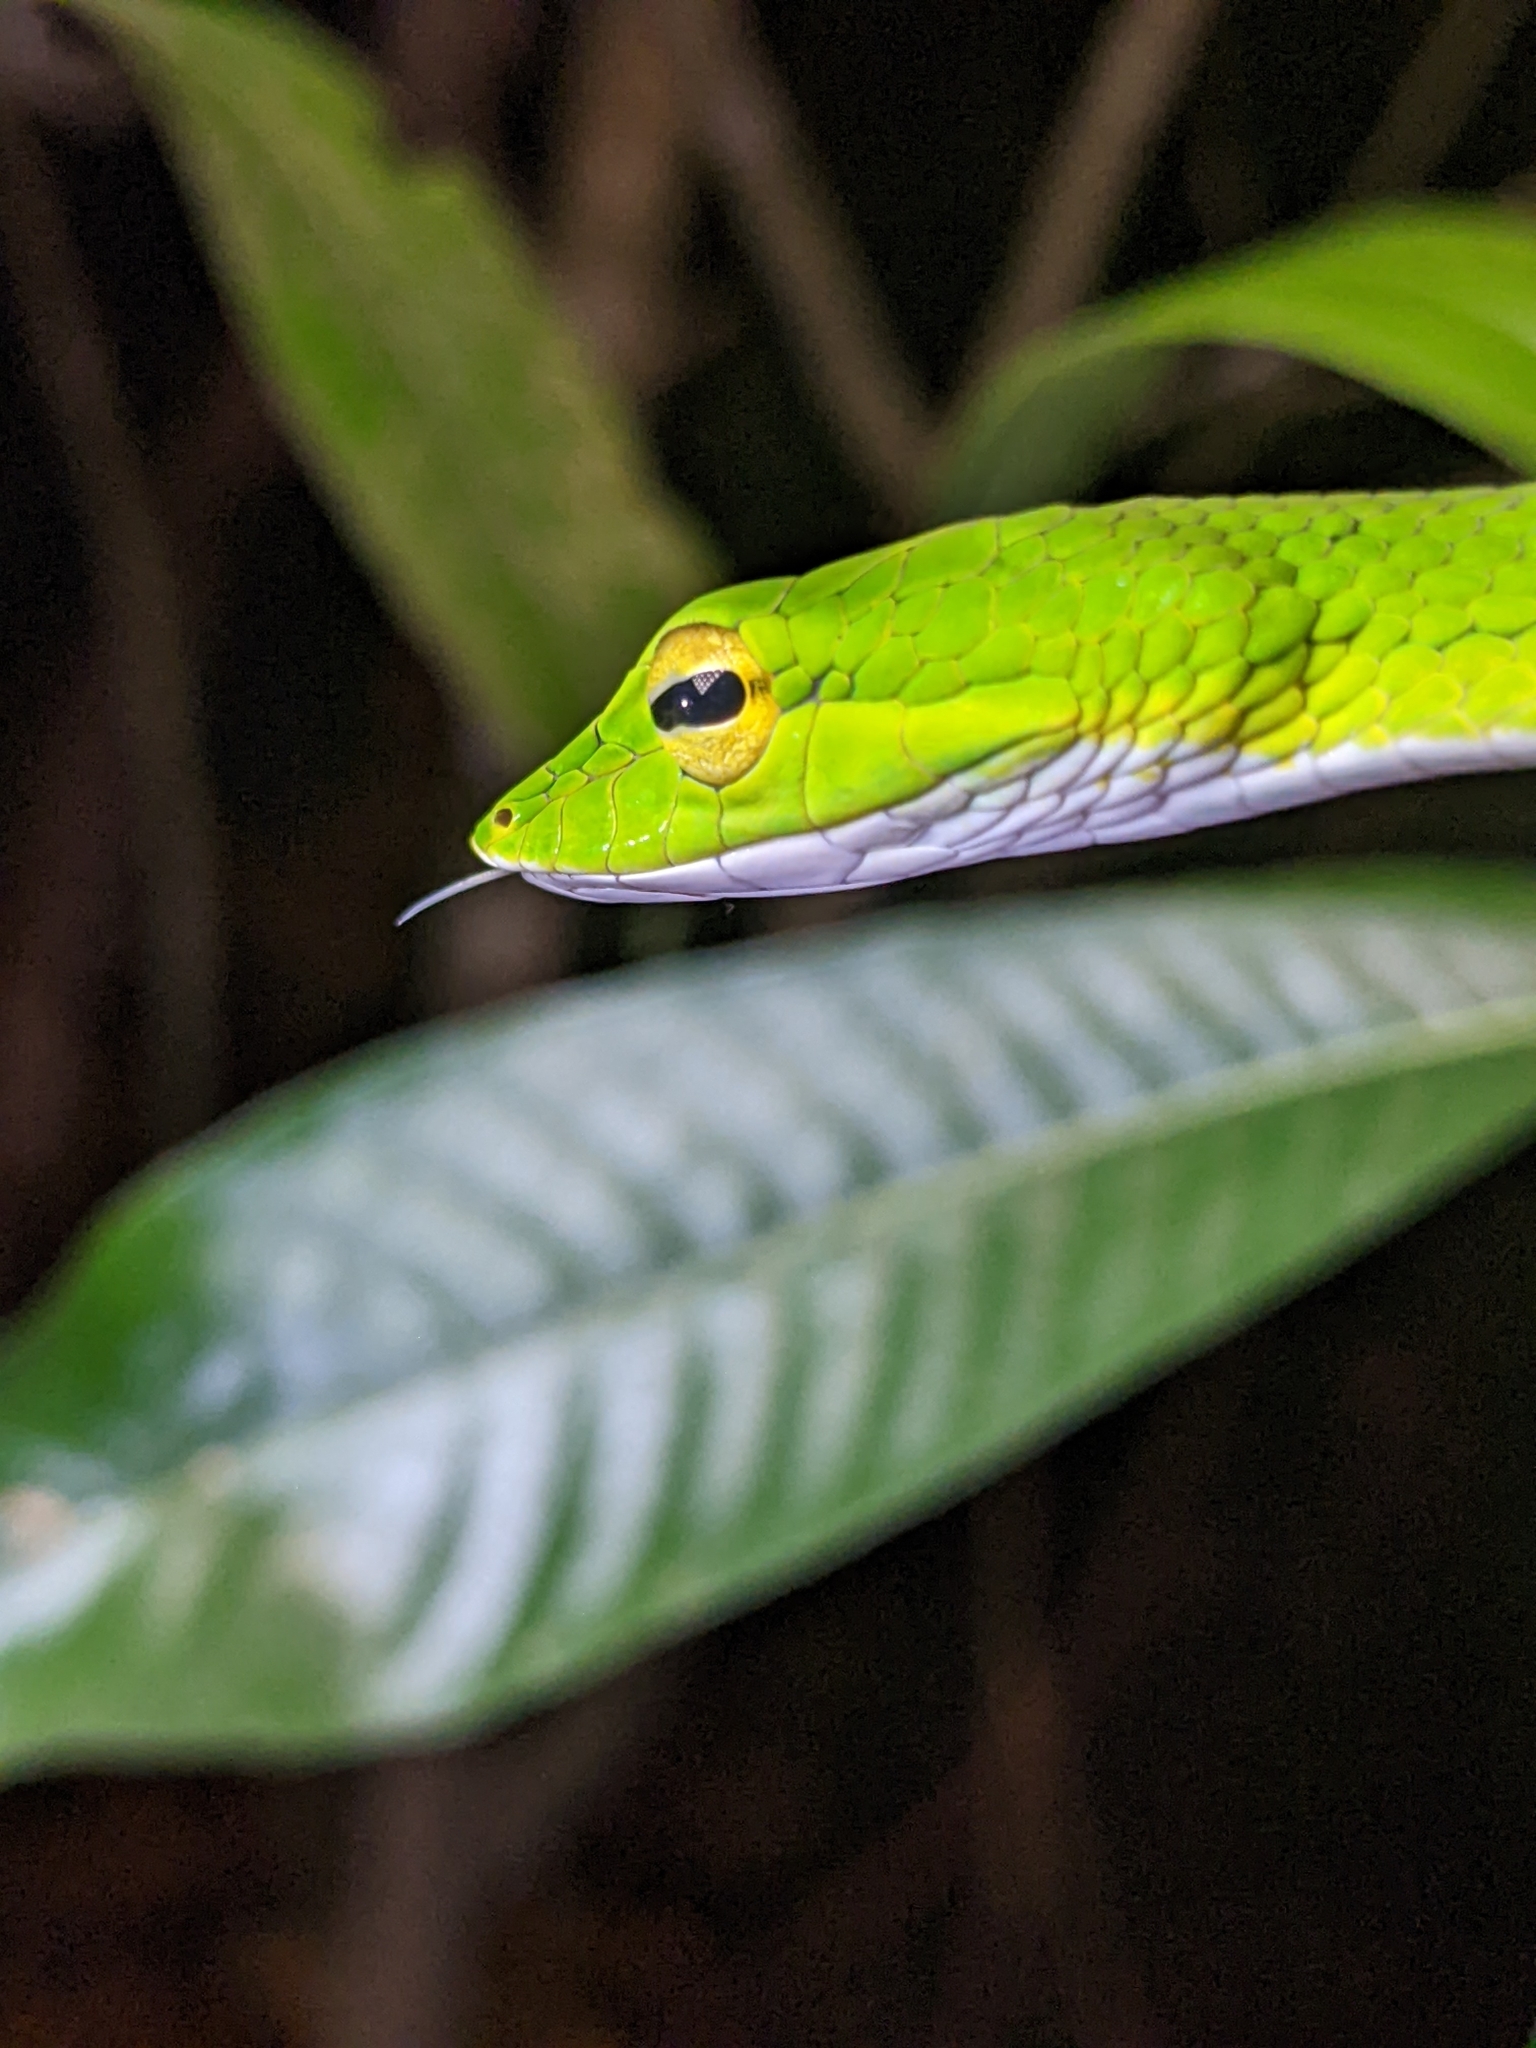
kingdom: Animalia
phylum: Chordata
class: Squamata
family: Colubridae
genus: Ahaetulla
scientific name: Ahaetulla mycterizans
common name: Malayan whip snake
